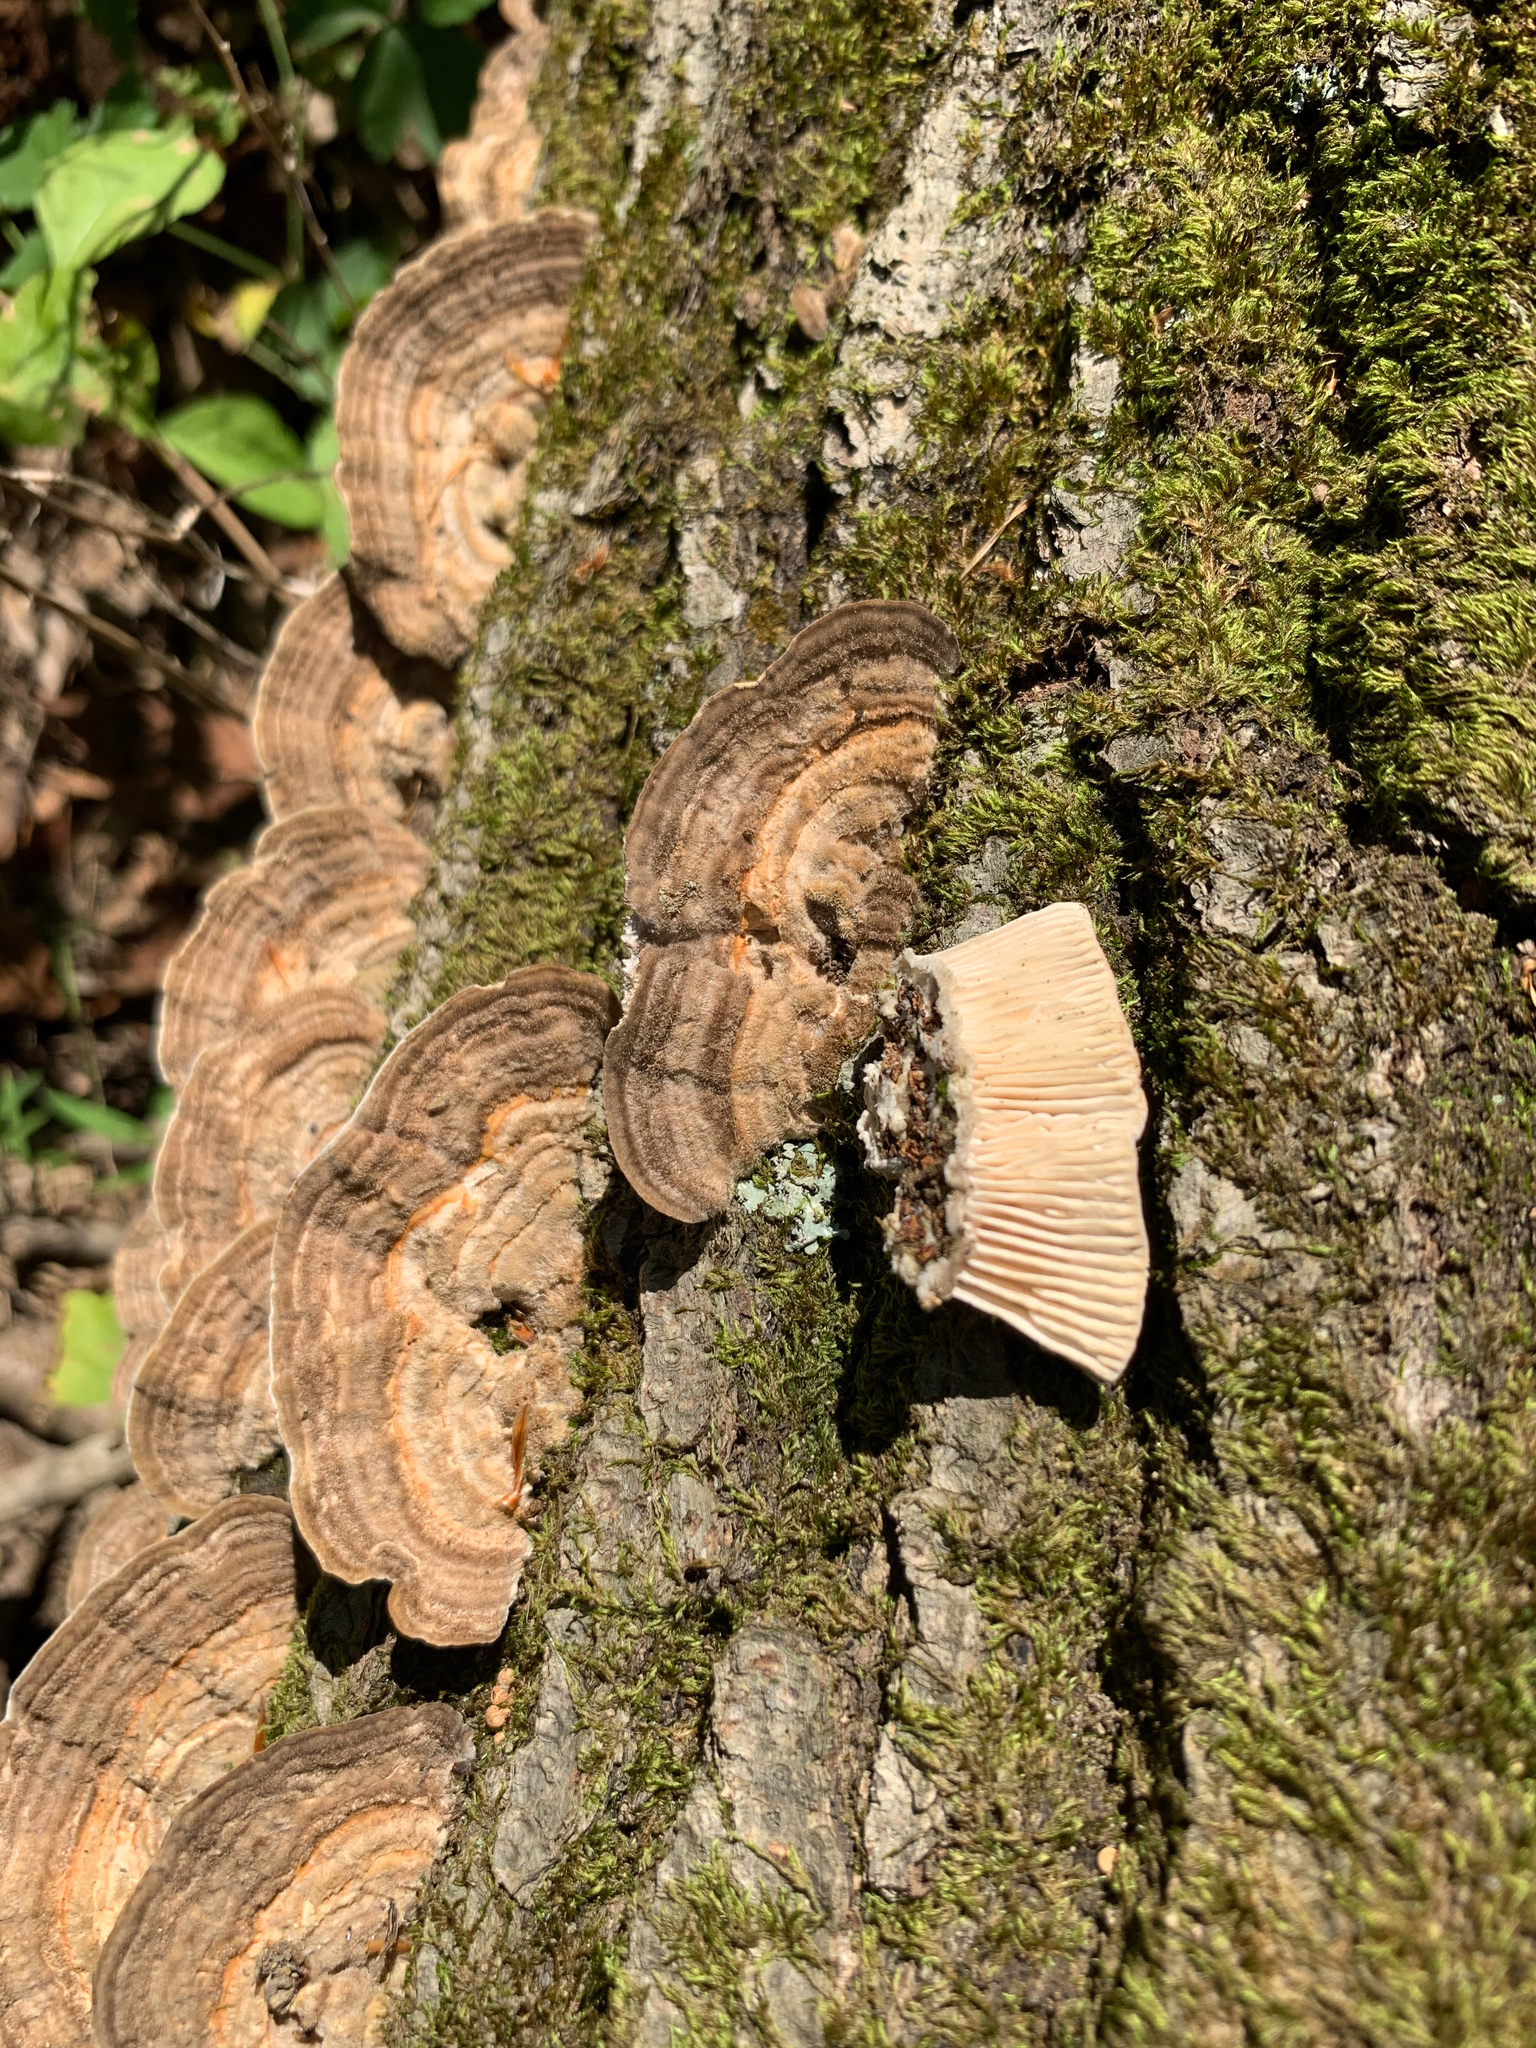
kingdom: Fungi
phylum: Basidiomycota
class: Agaricomycetes
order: Polyporales
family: Polyporaceae
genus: Lenzites
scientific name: Lenzites betulinus
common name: Birch mazegill
